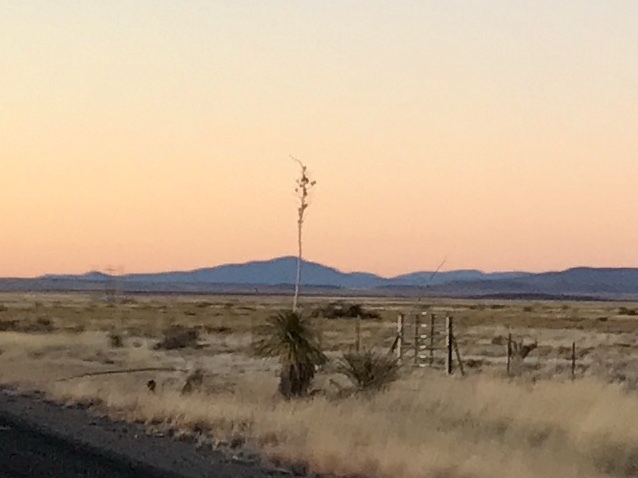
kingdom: Plantae
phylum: Tracheophyta
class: Liliopsida
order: Asparagales
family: Asparagaceae
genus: Yucca
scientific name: Yucca elata
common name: Palmella
